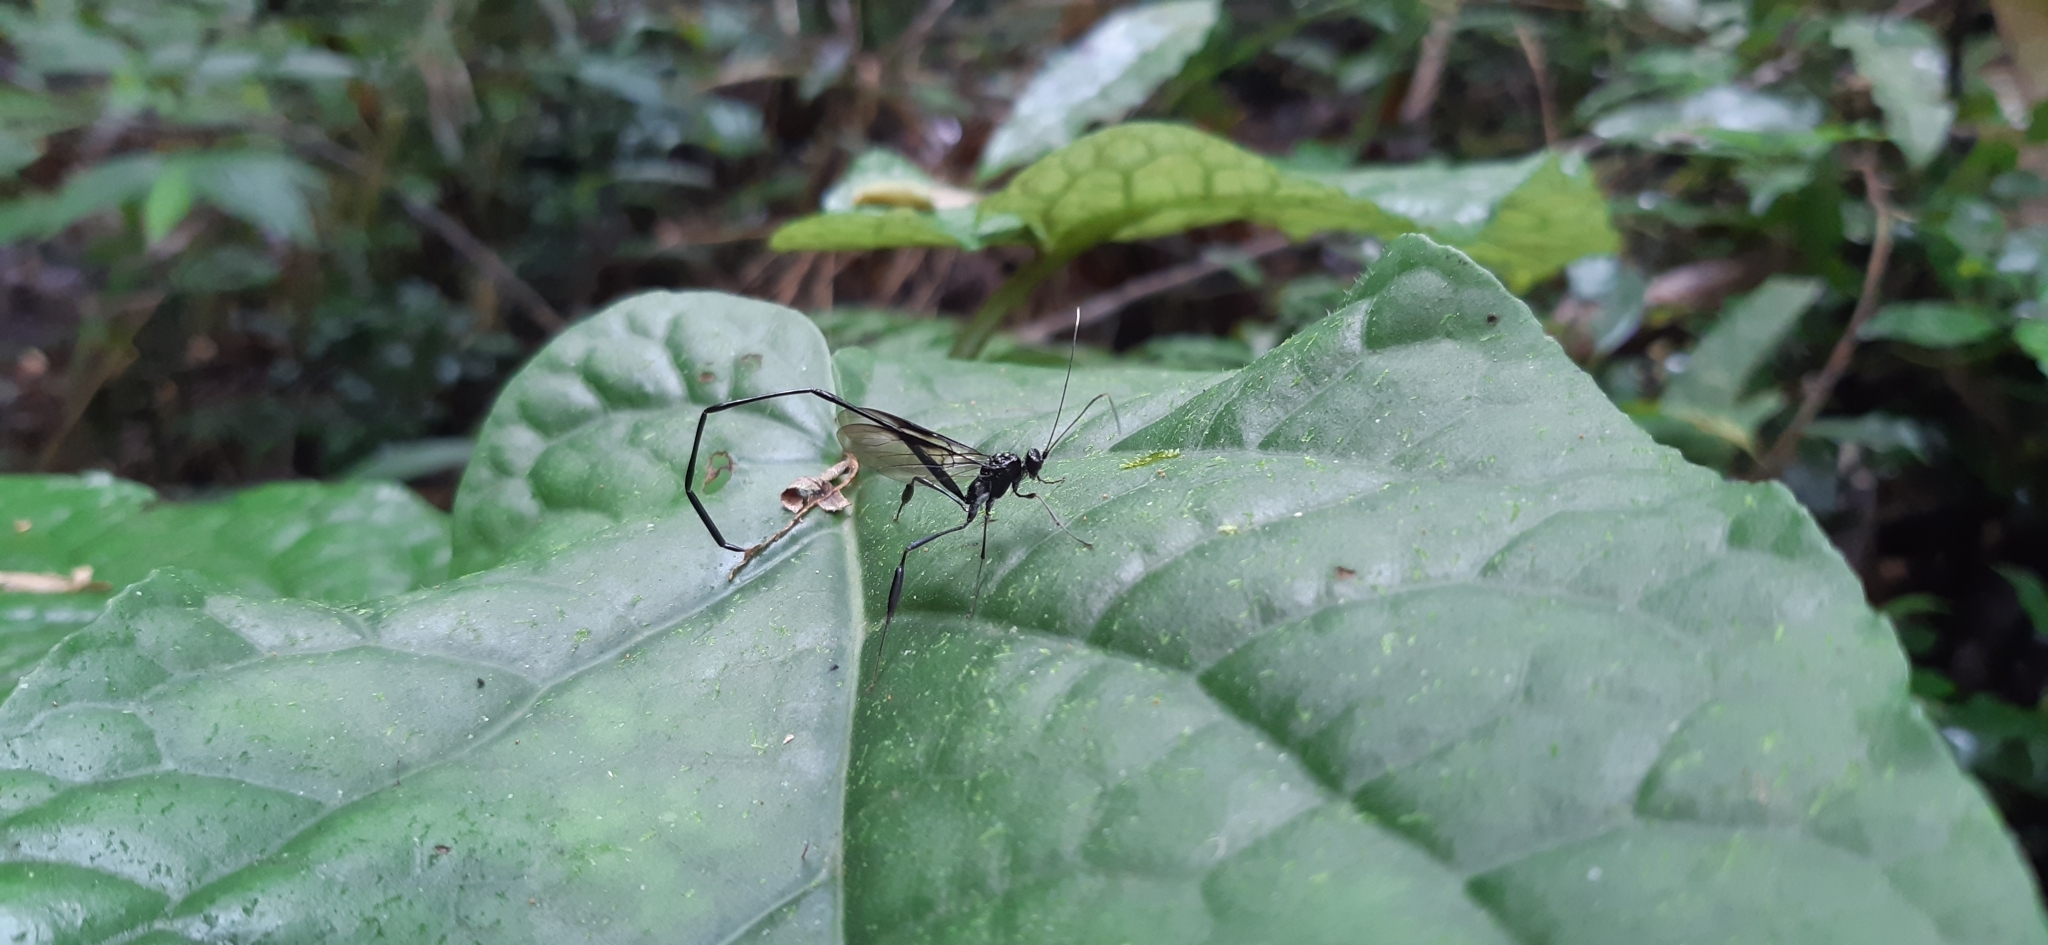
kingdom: Animalia
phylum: Arthropoda
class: Insecta
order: Hymenoptera
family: Pelecinidae
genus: Pelecinus
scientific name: Pelecinus polyturator
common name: American pelecinid wasp
